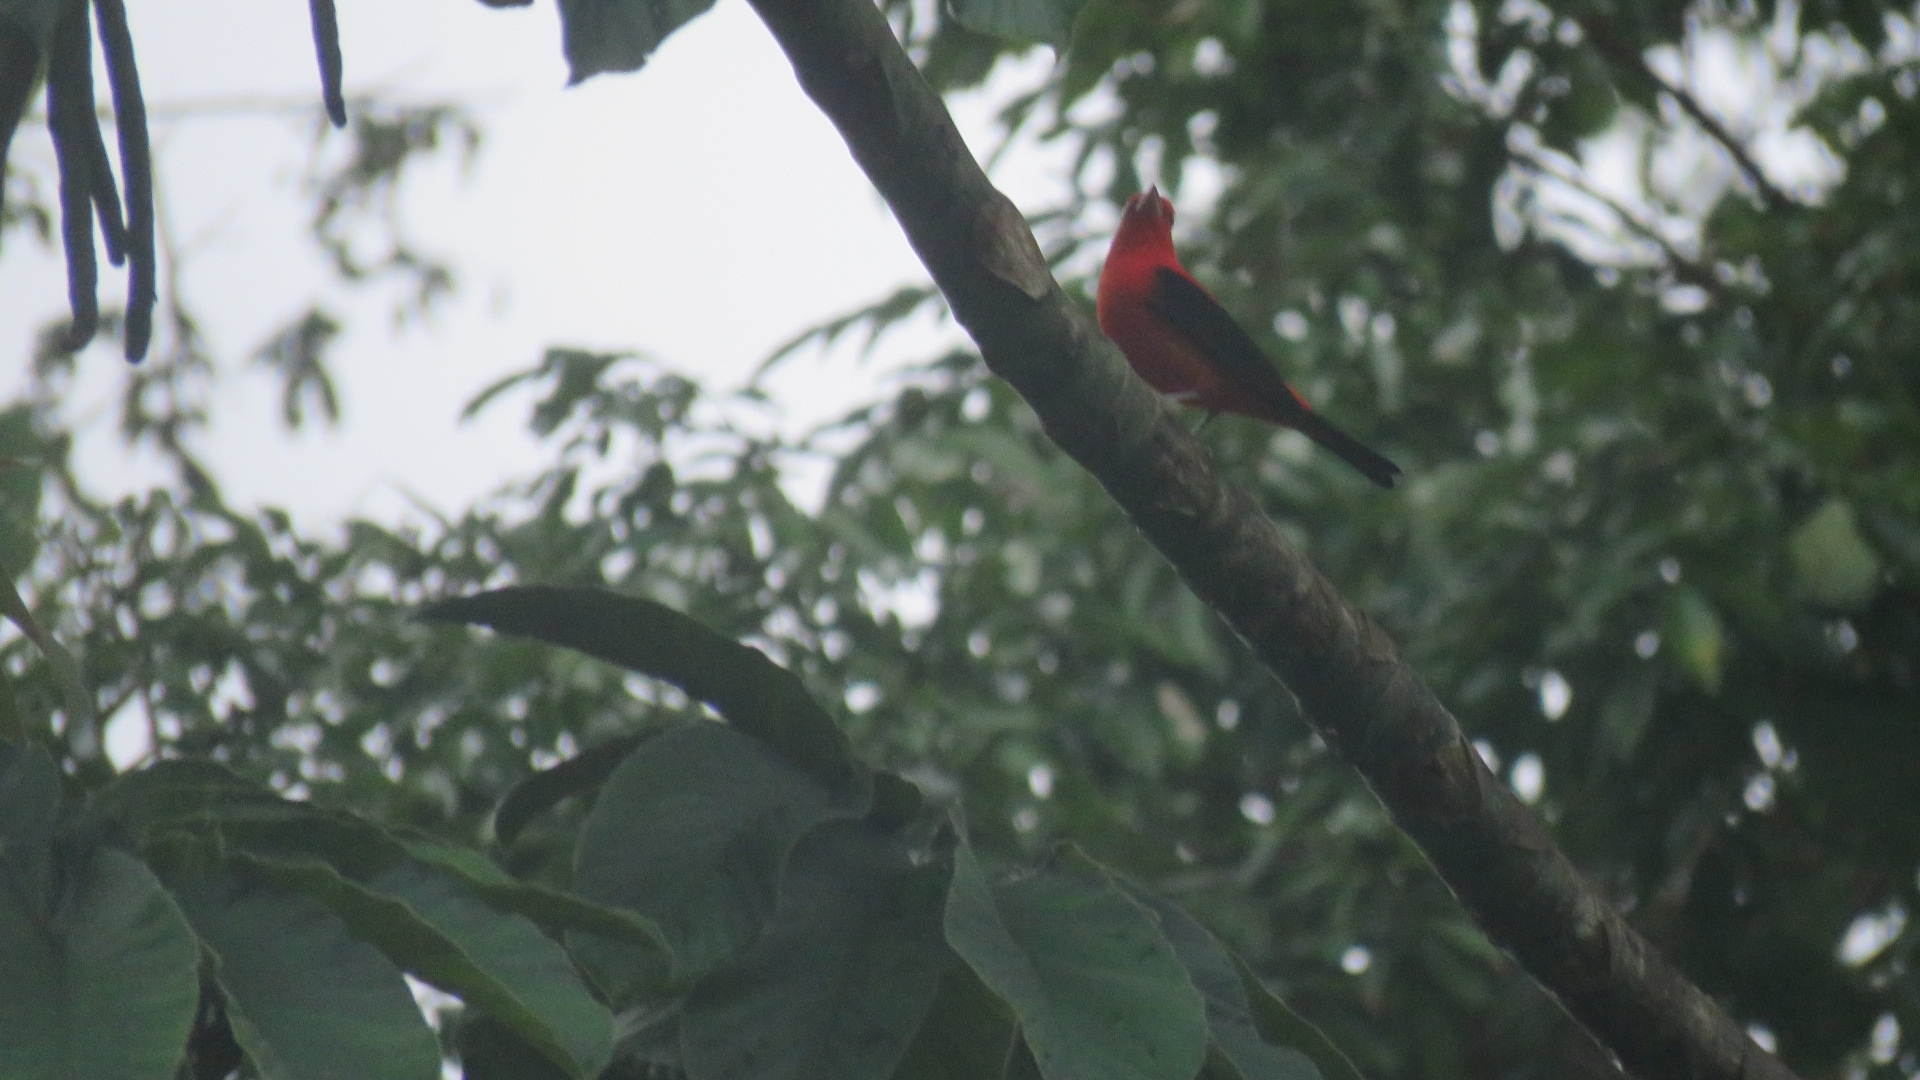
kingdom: Animalia
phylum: Chordata
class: Aves
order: Passeriformes
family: Cardinalidae
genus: Piranga
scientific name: Piranga olivacea
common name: Scarlet tanager
